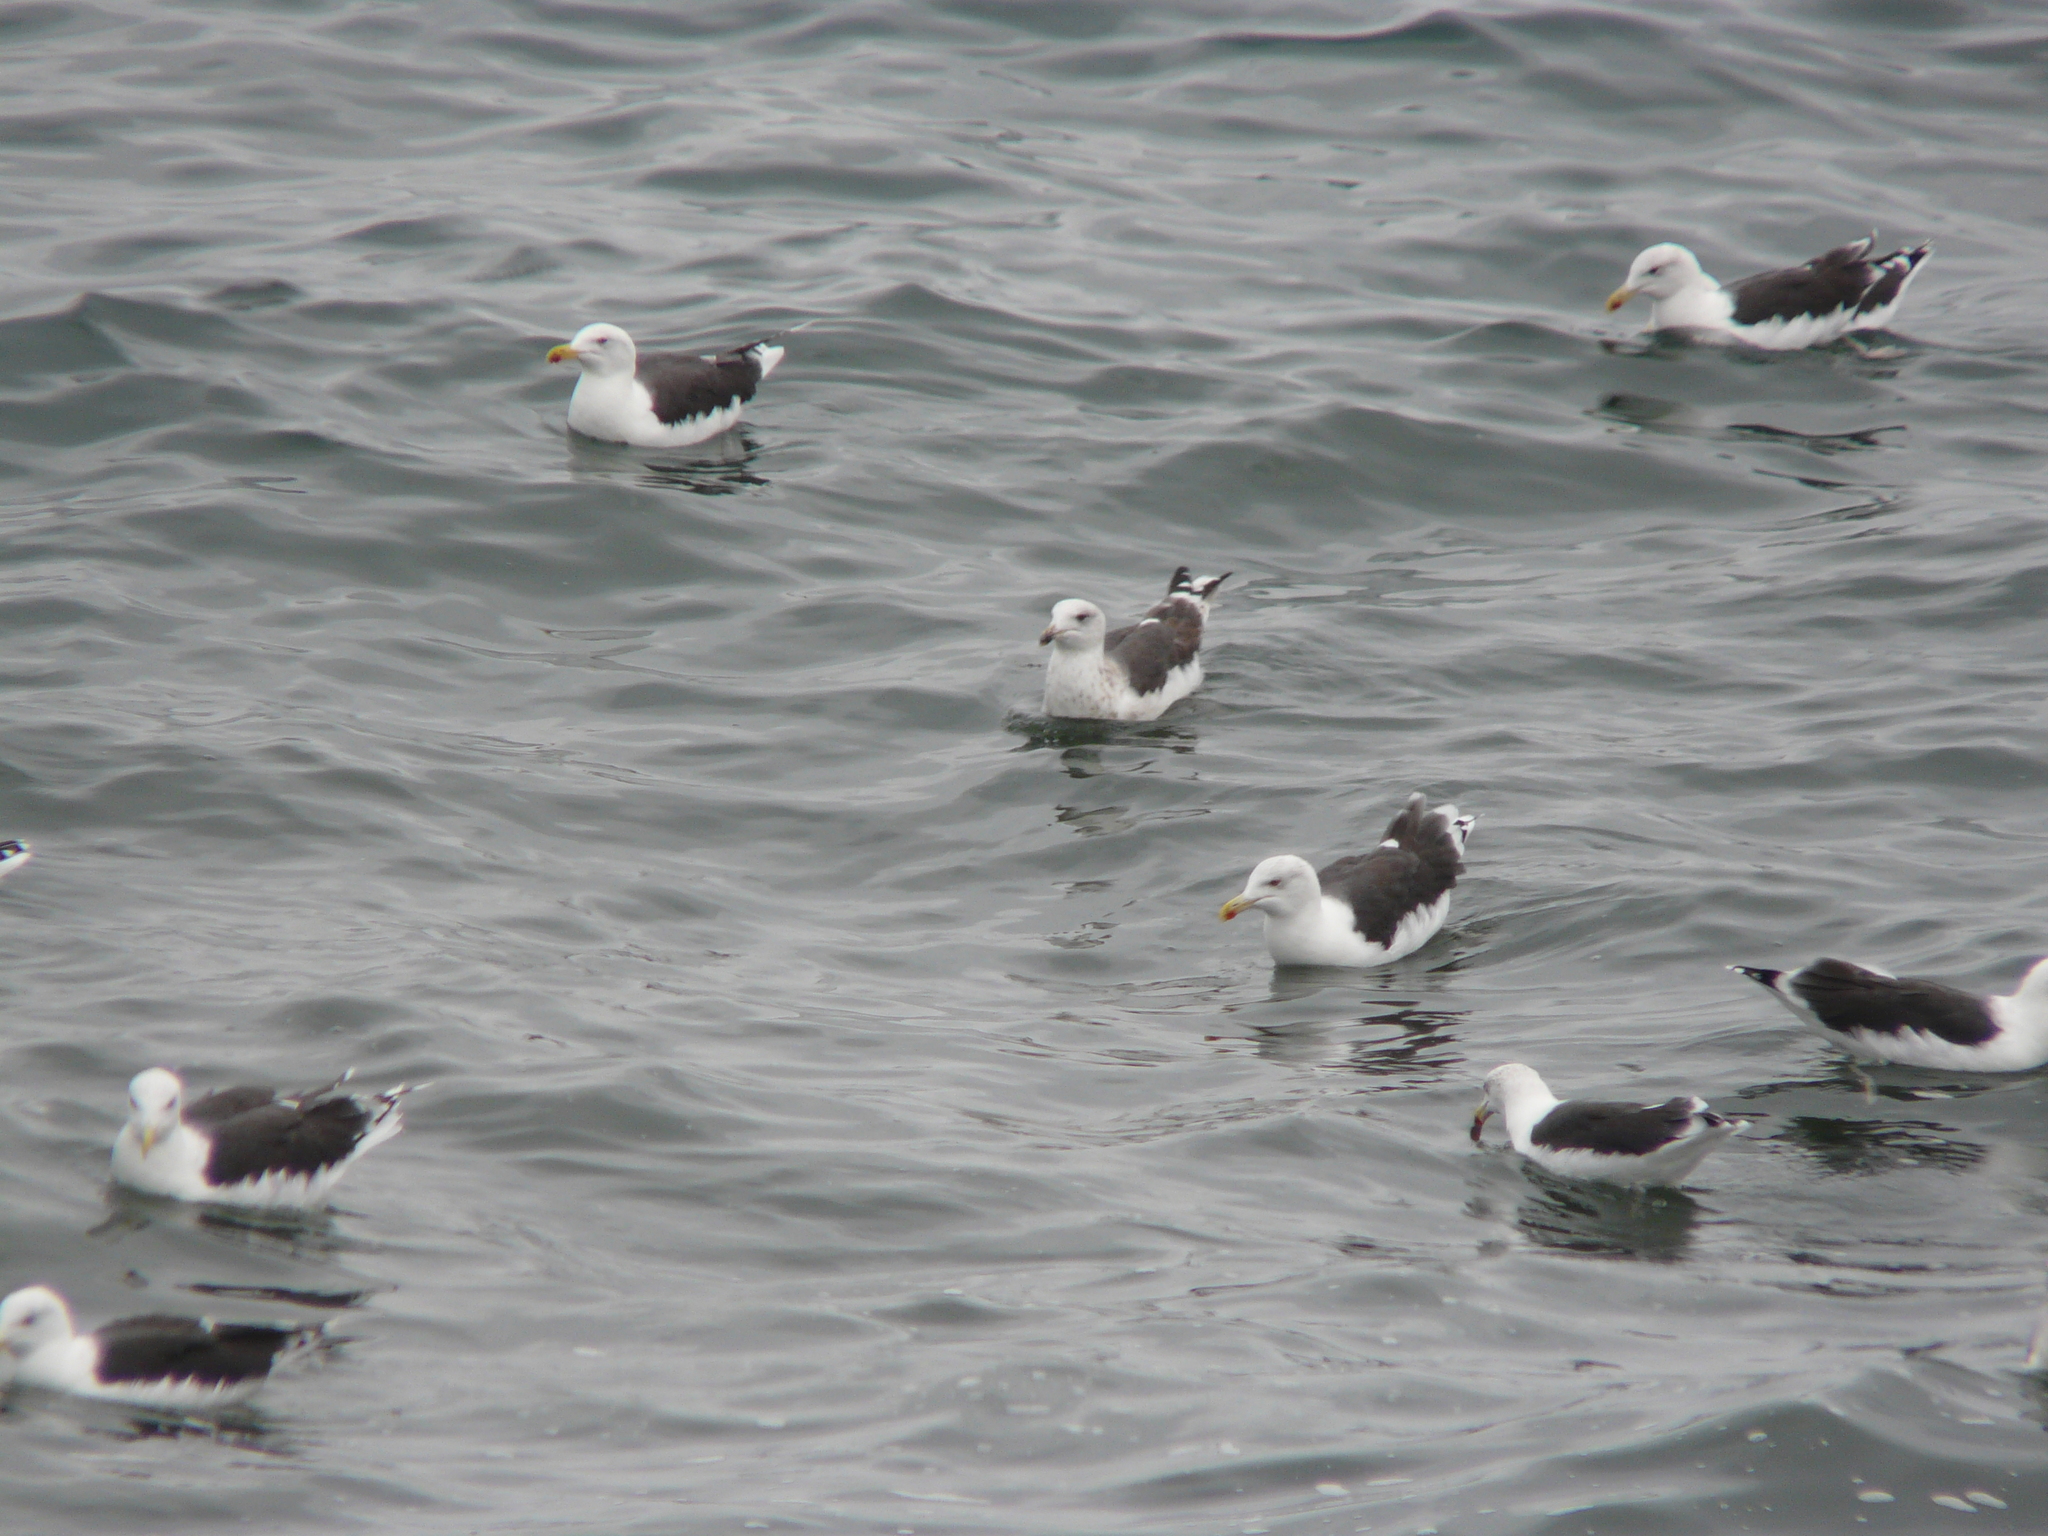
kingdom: Animalia
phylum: Chordata
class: Aves
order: Charadriiformes
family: Laridae
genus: Larus
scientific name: Larus marinus
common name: Great black-backed gull
